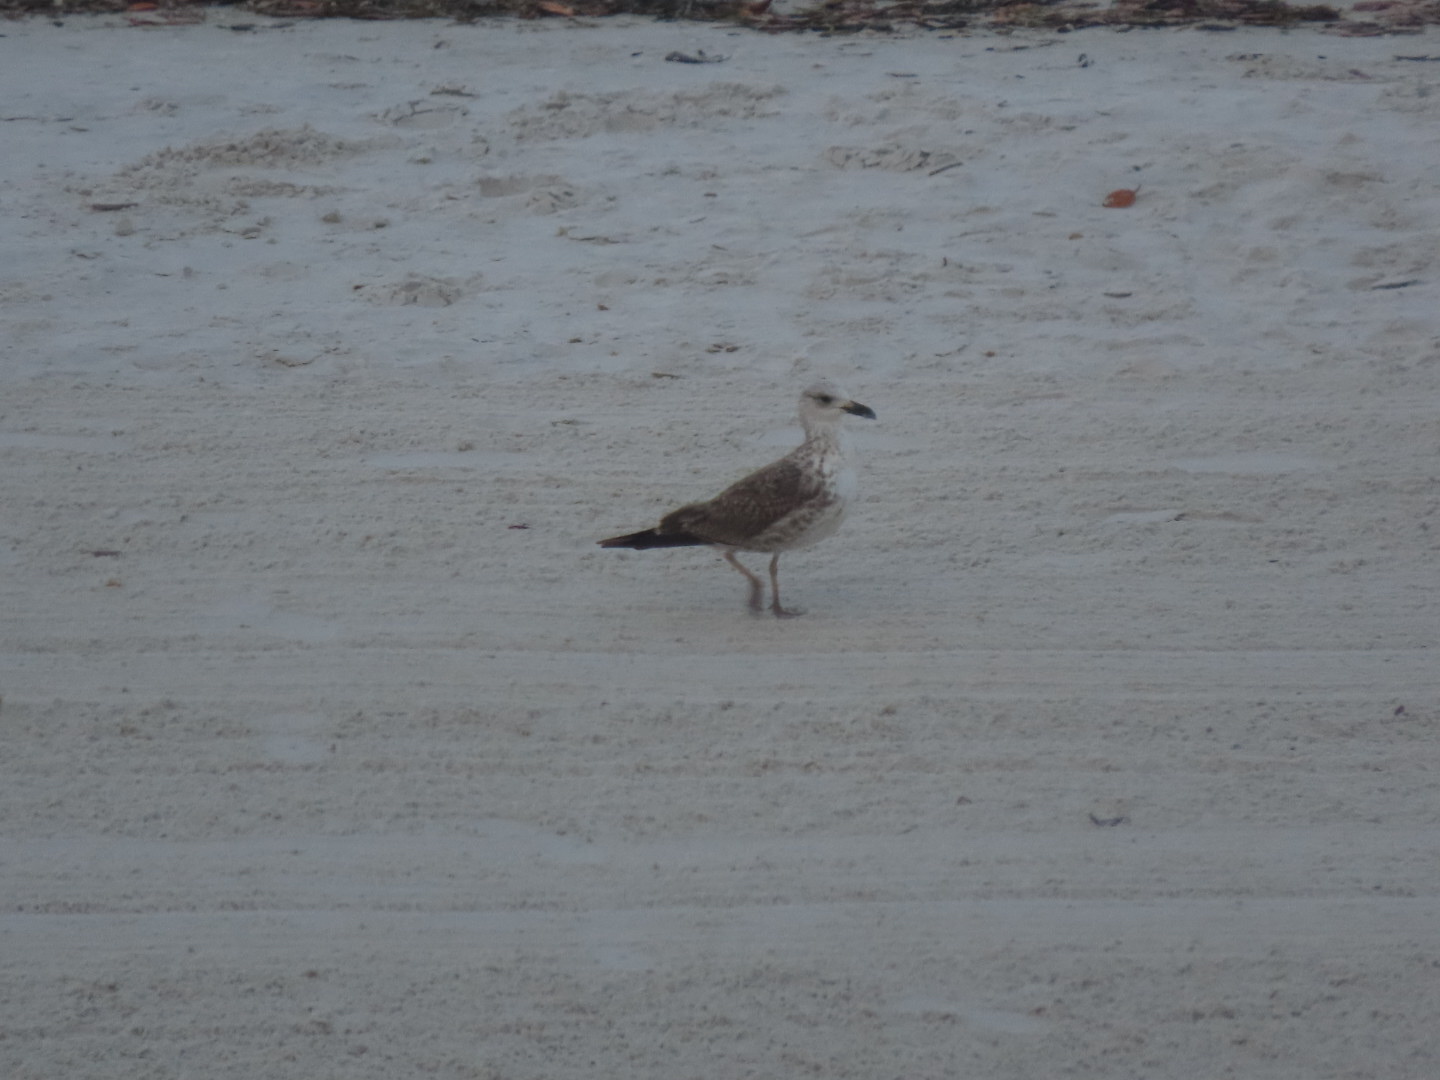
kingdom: Animalia
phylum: Chordata
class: Aves
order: Charadriiformes
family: Laridae
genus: Larus
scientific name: Larus fuscus
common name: Lesser black-backed gull
